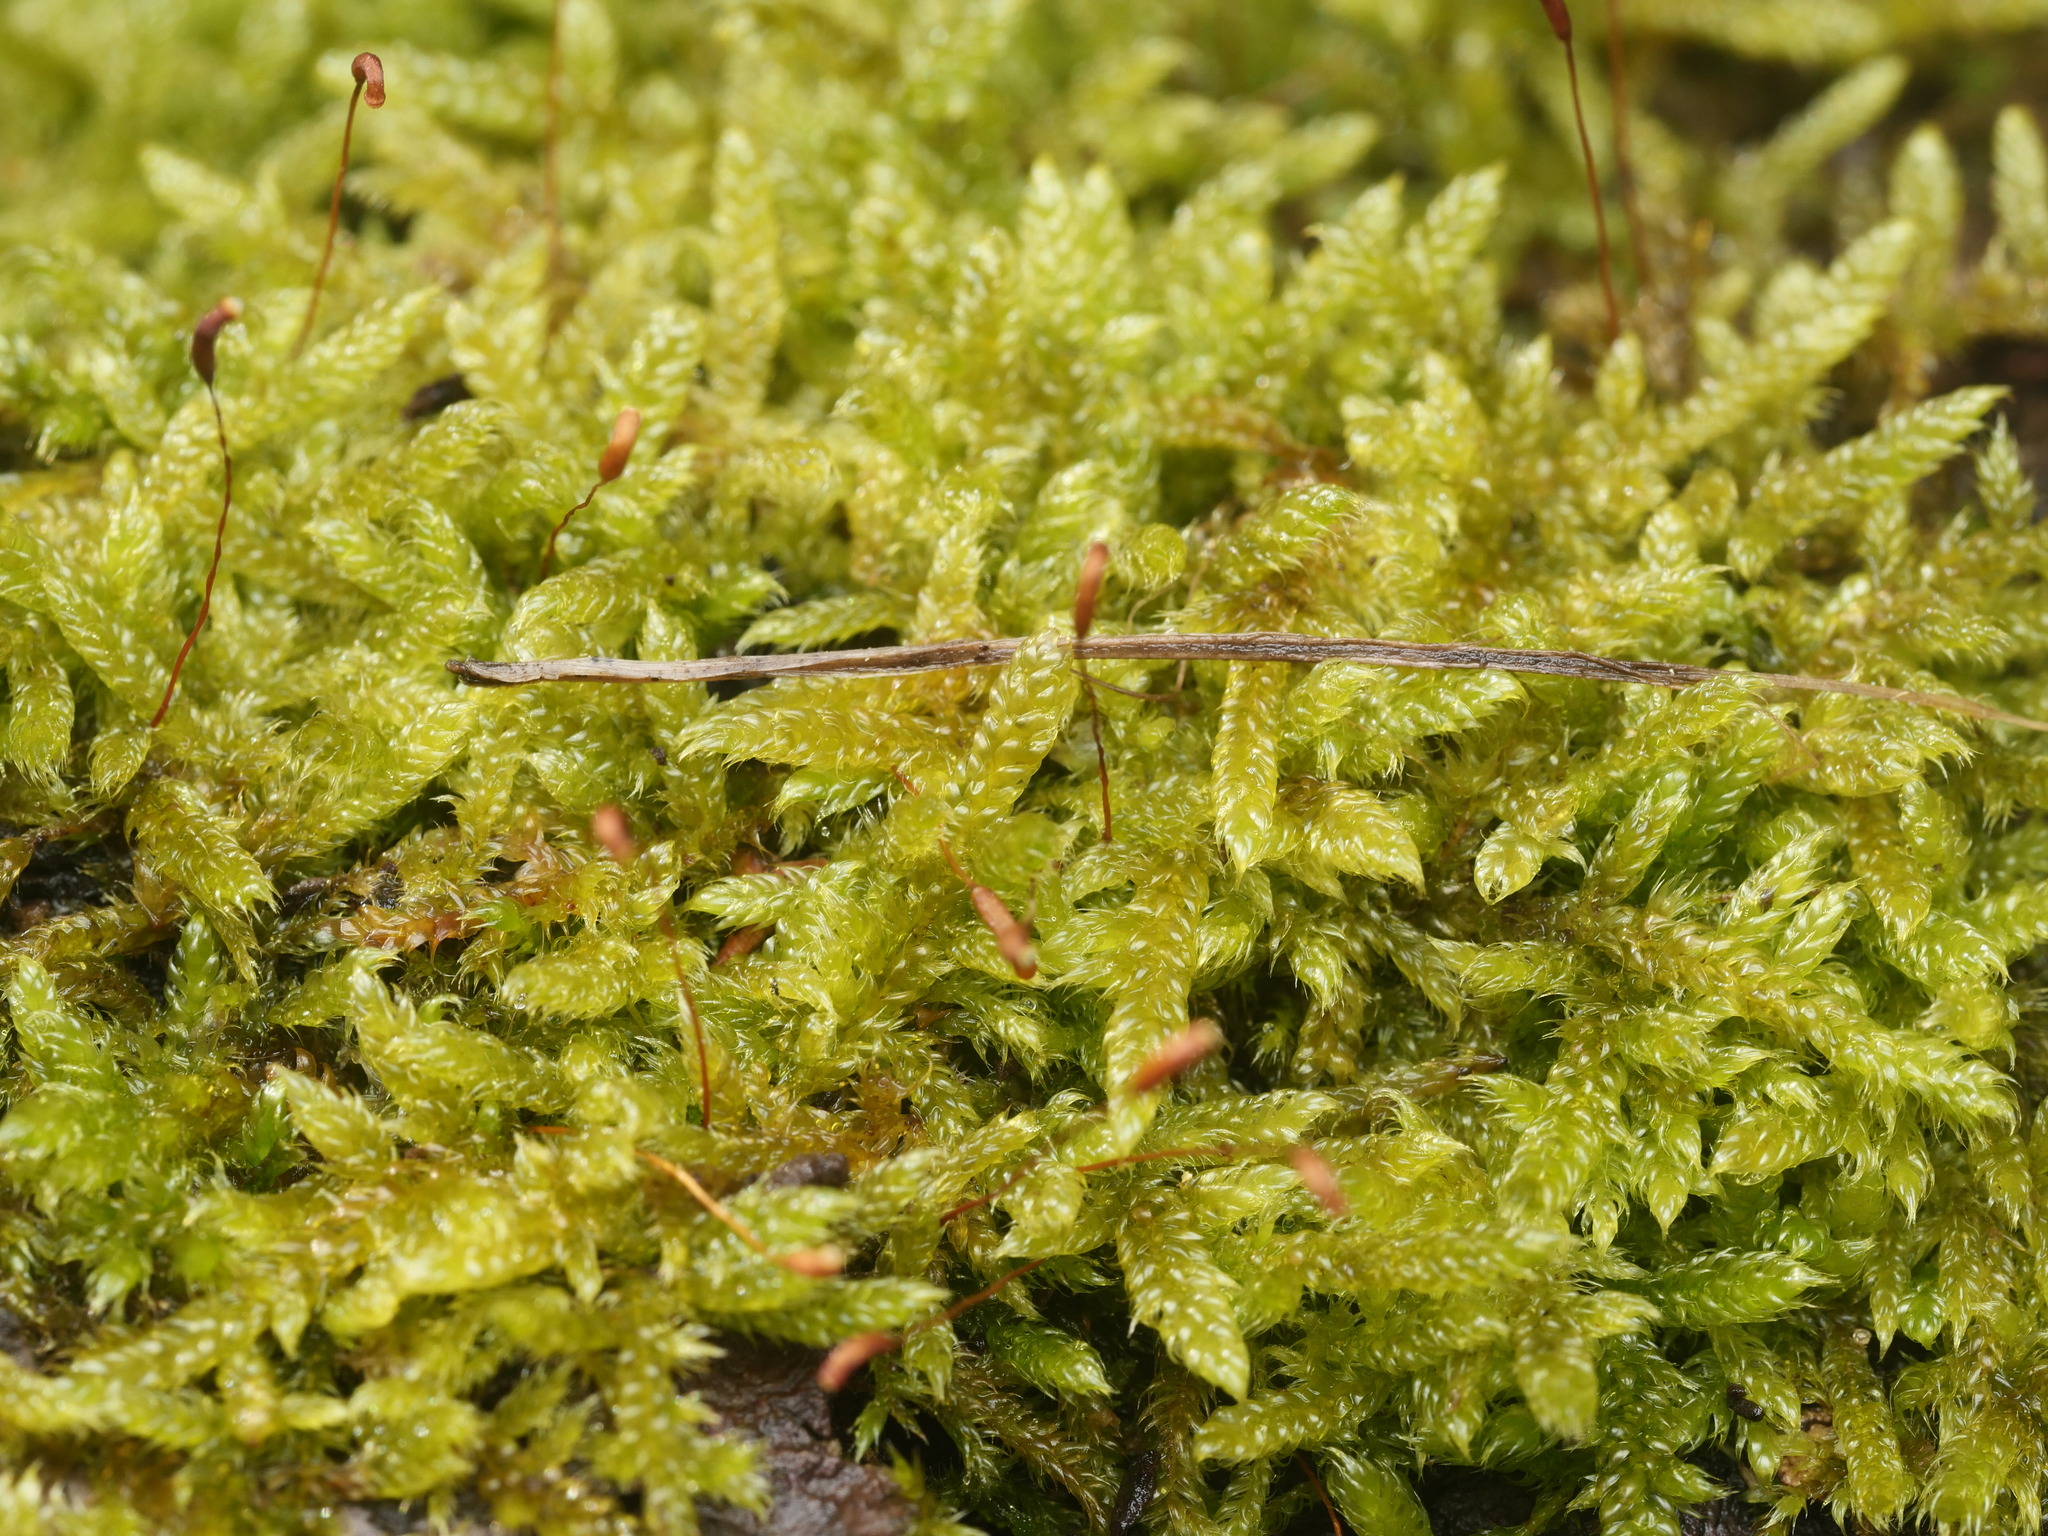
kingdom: Plantae
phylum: Bryophyta
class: Bryopsida
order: Hypnales
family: Hypnaceae
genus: Hypnum
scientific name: Hypnum cupressiforme
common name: Cypress-leaved plait-moss
